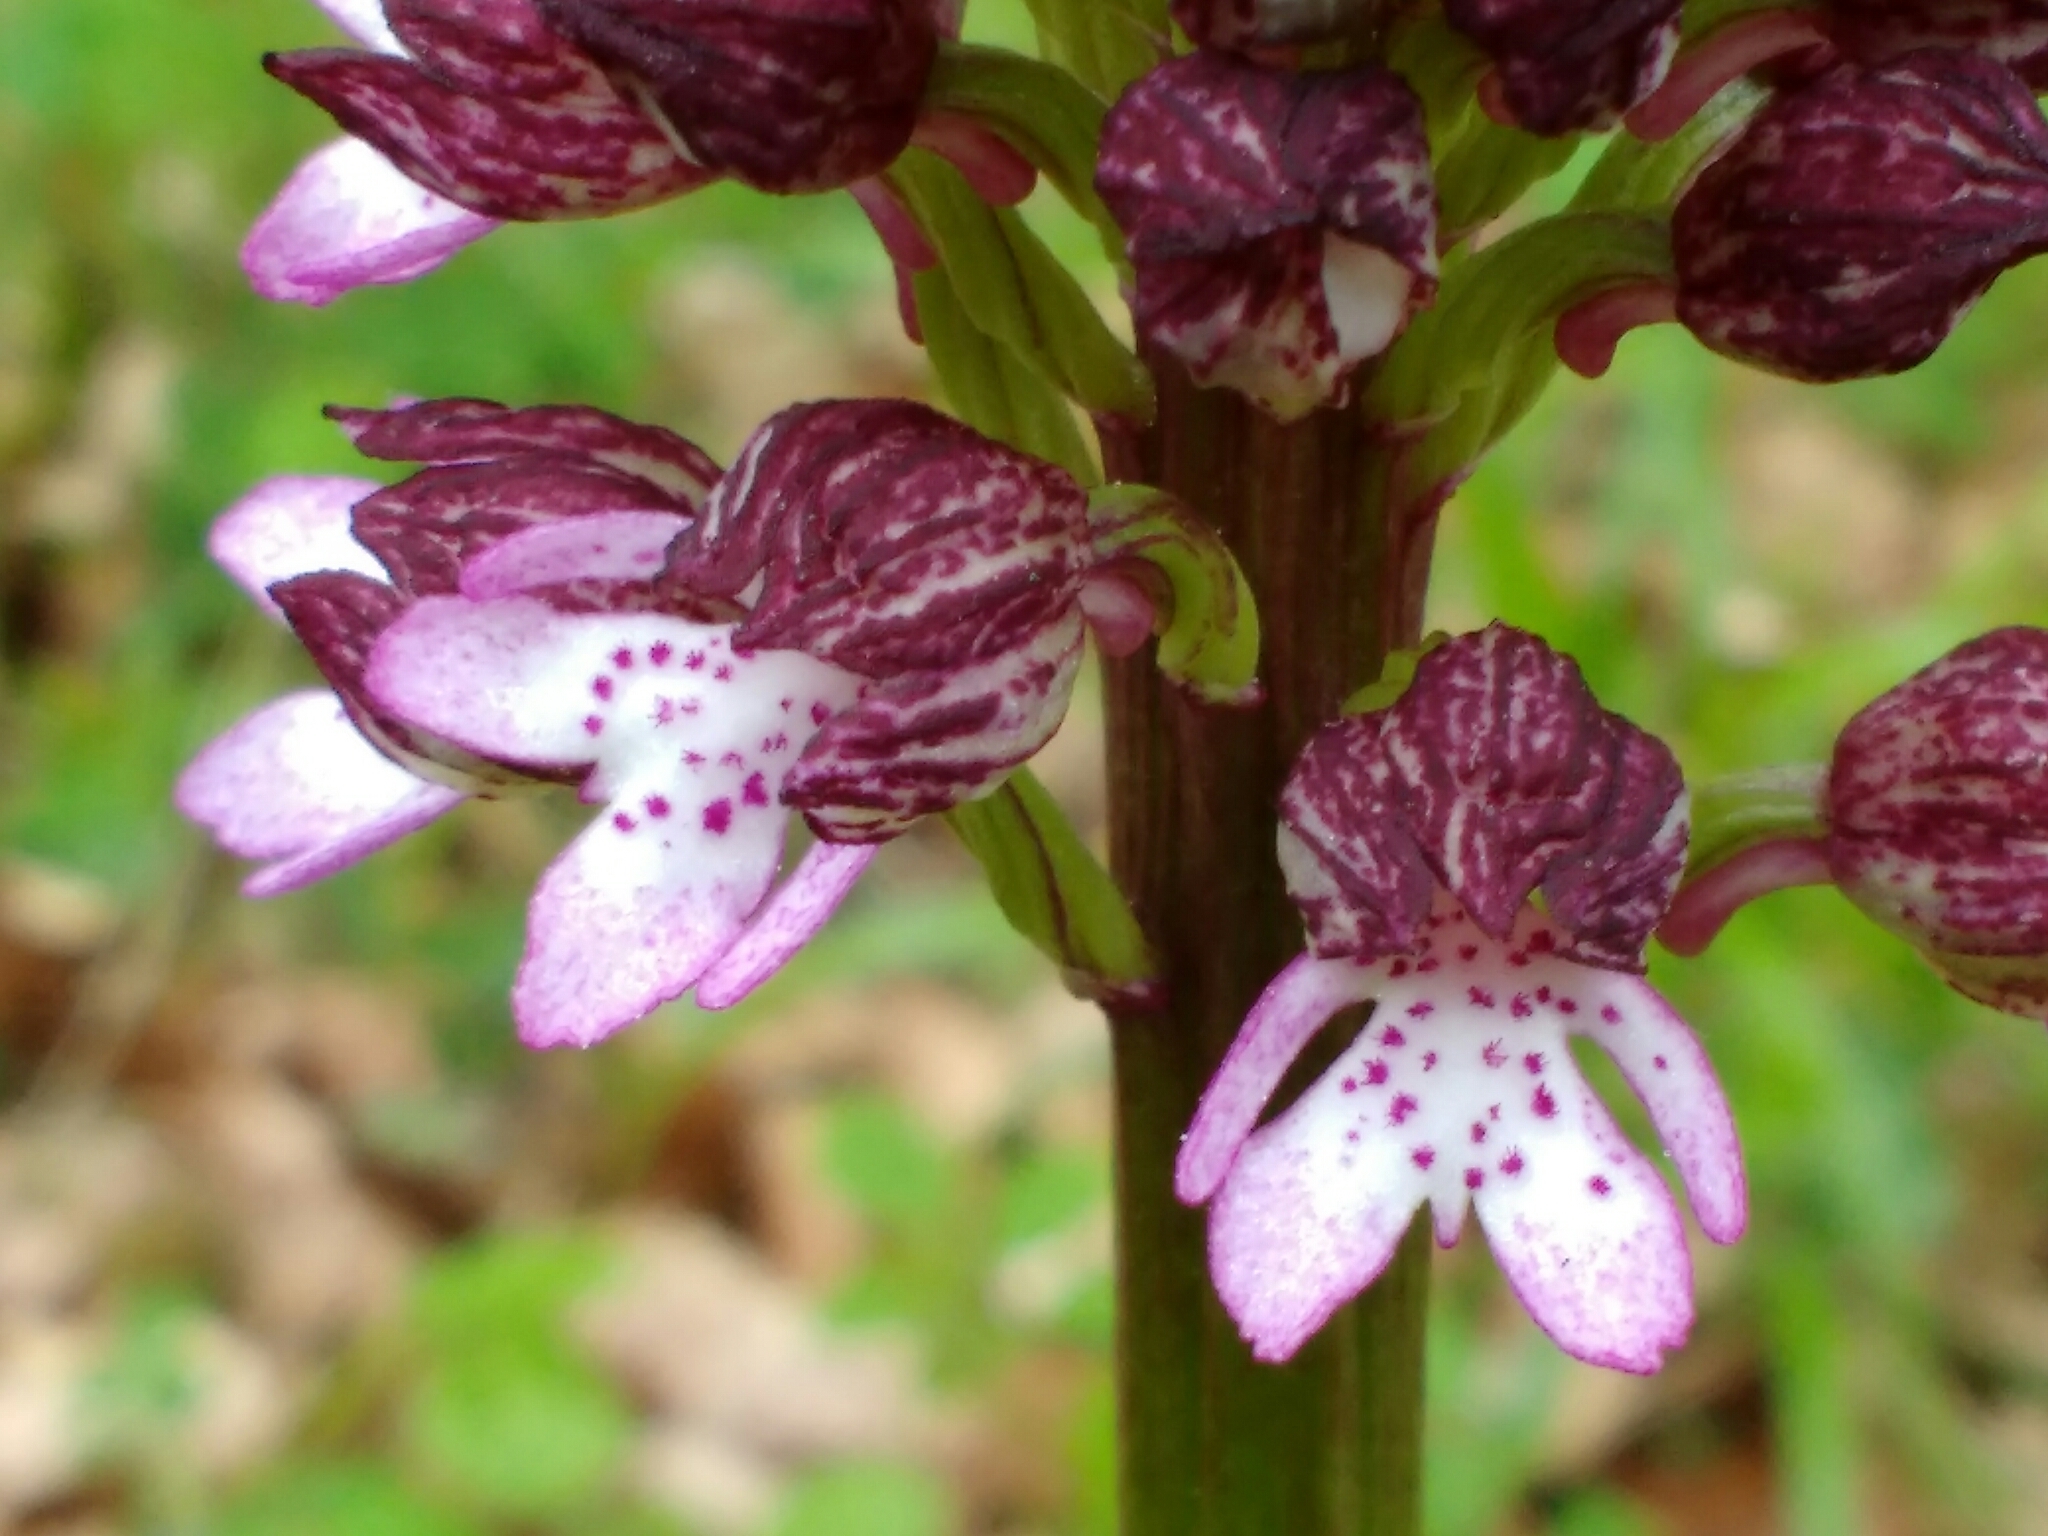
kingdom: Plantae
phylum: Tracheophyta
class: Liliopsida
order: Asparagales
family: Orchidaceae
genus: Orchis
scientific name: Orchis purpurea
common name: Lady orchid
